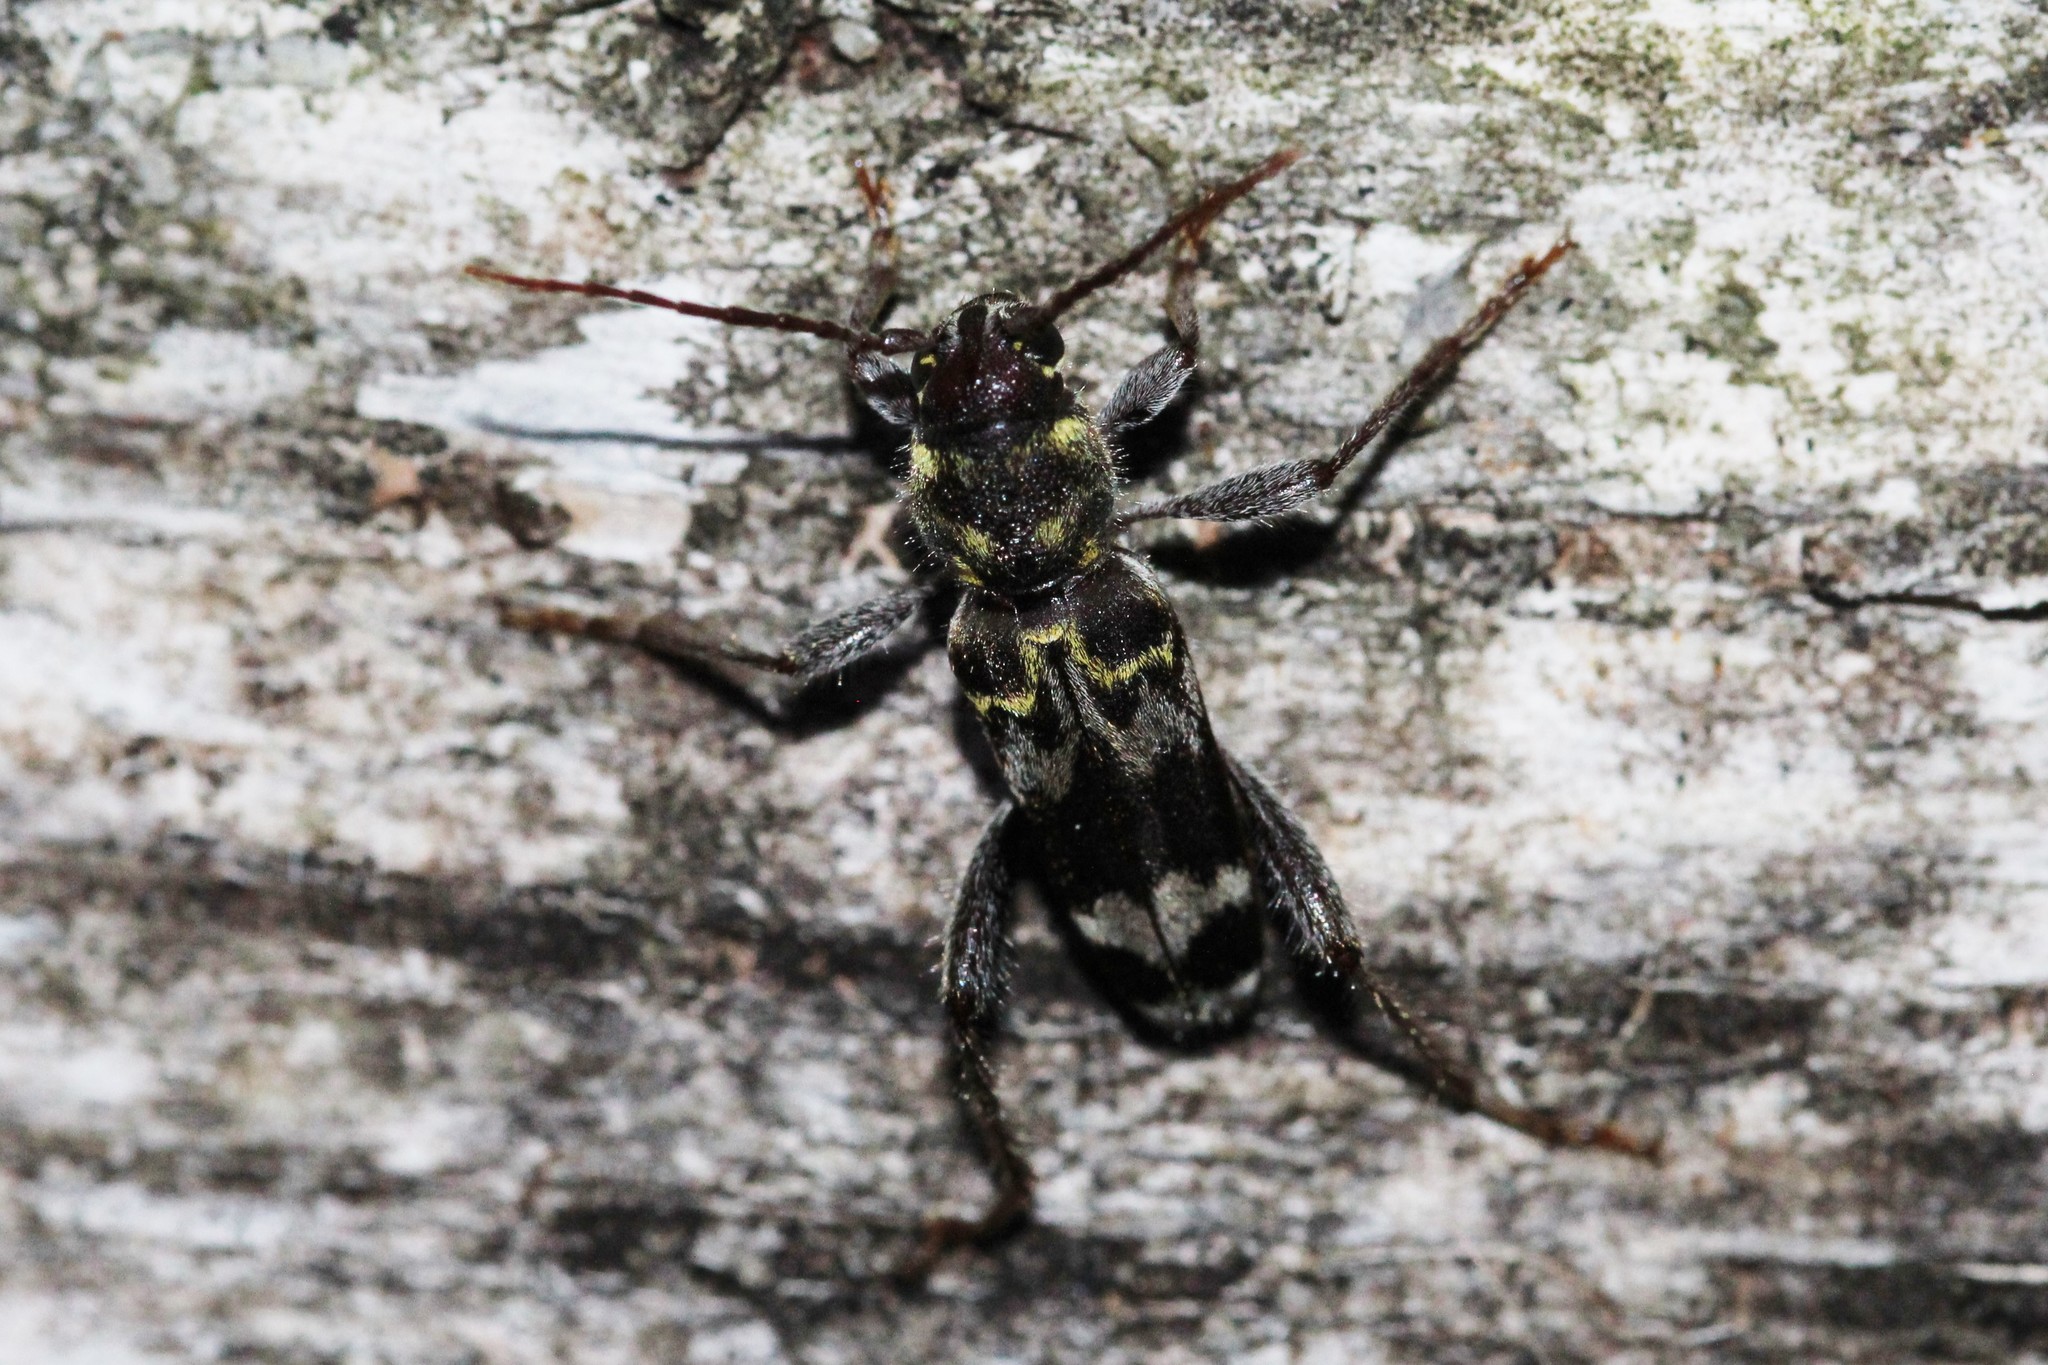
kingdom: Animalia
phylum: Arthropoda
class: Insecta
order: Coleoptera
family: Cerambycidae
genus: Xylotrechus
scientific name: Xylotrechus colonus
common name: Long-horned beetle
